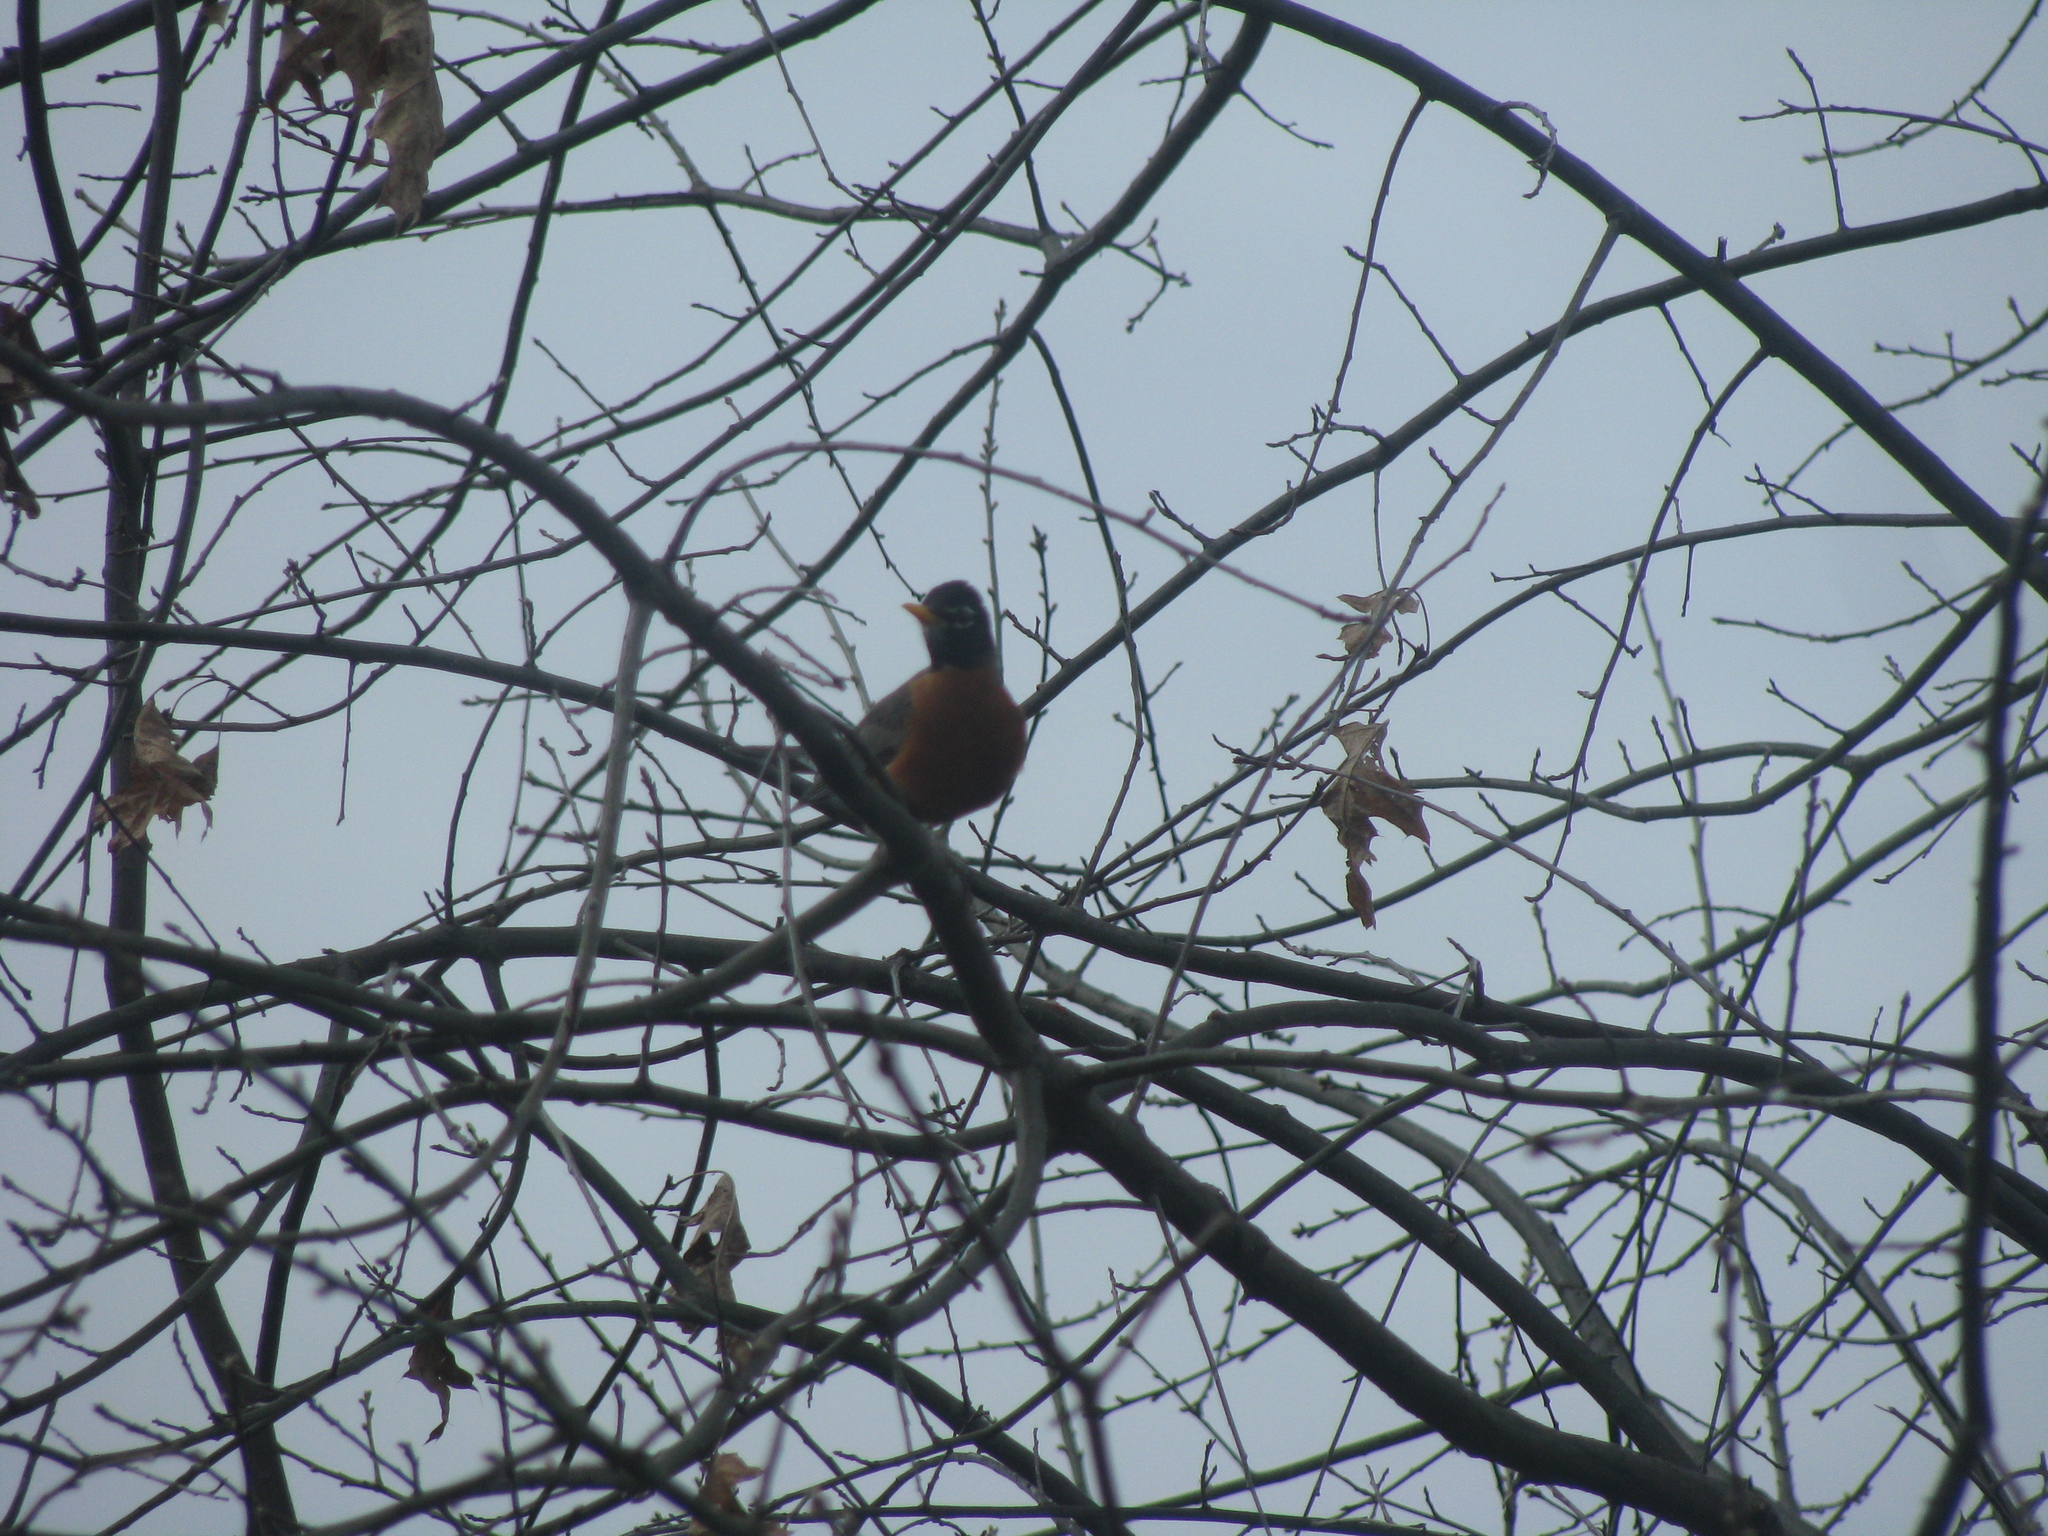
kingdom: Animalia
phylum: Chordata
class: Aves
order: Passeriformes
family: Turdidae
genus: Turdus
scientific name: Turdus migratorius
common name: American robin
